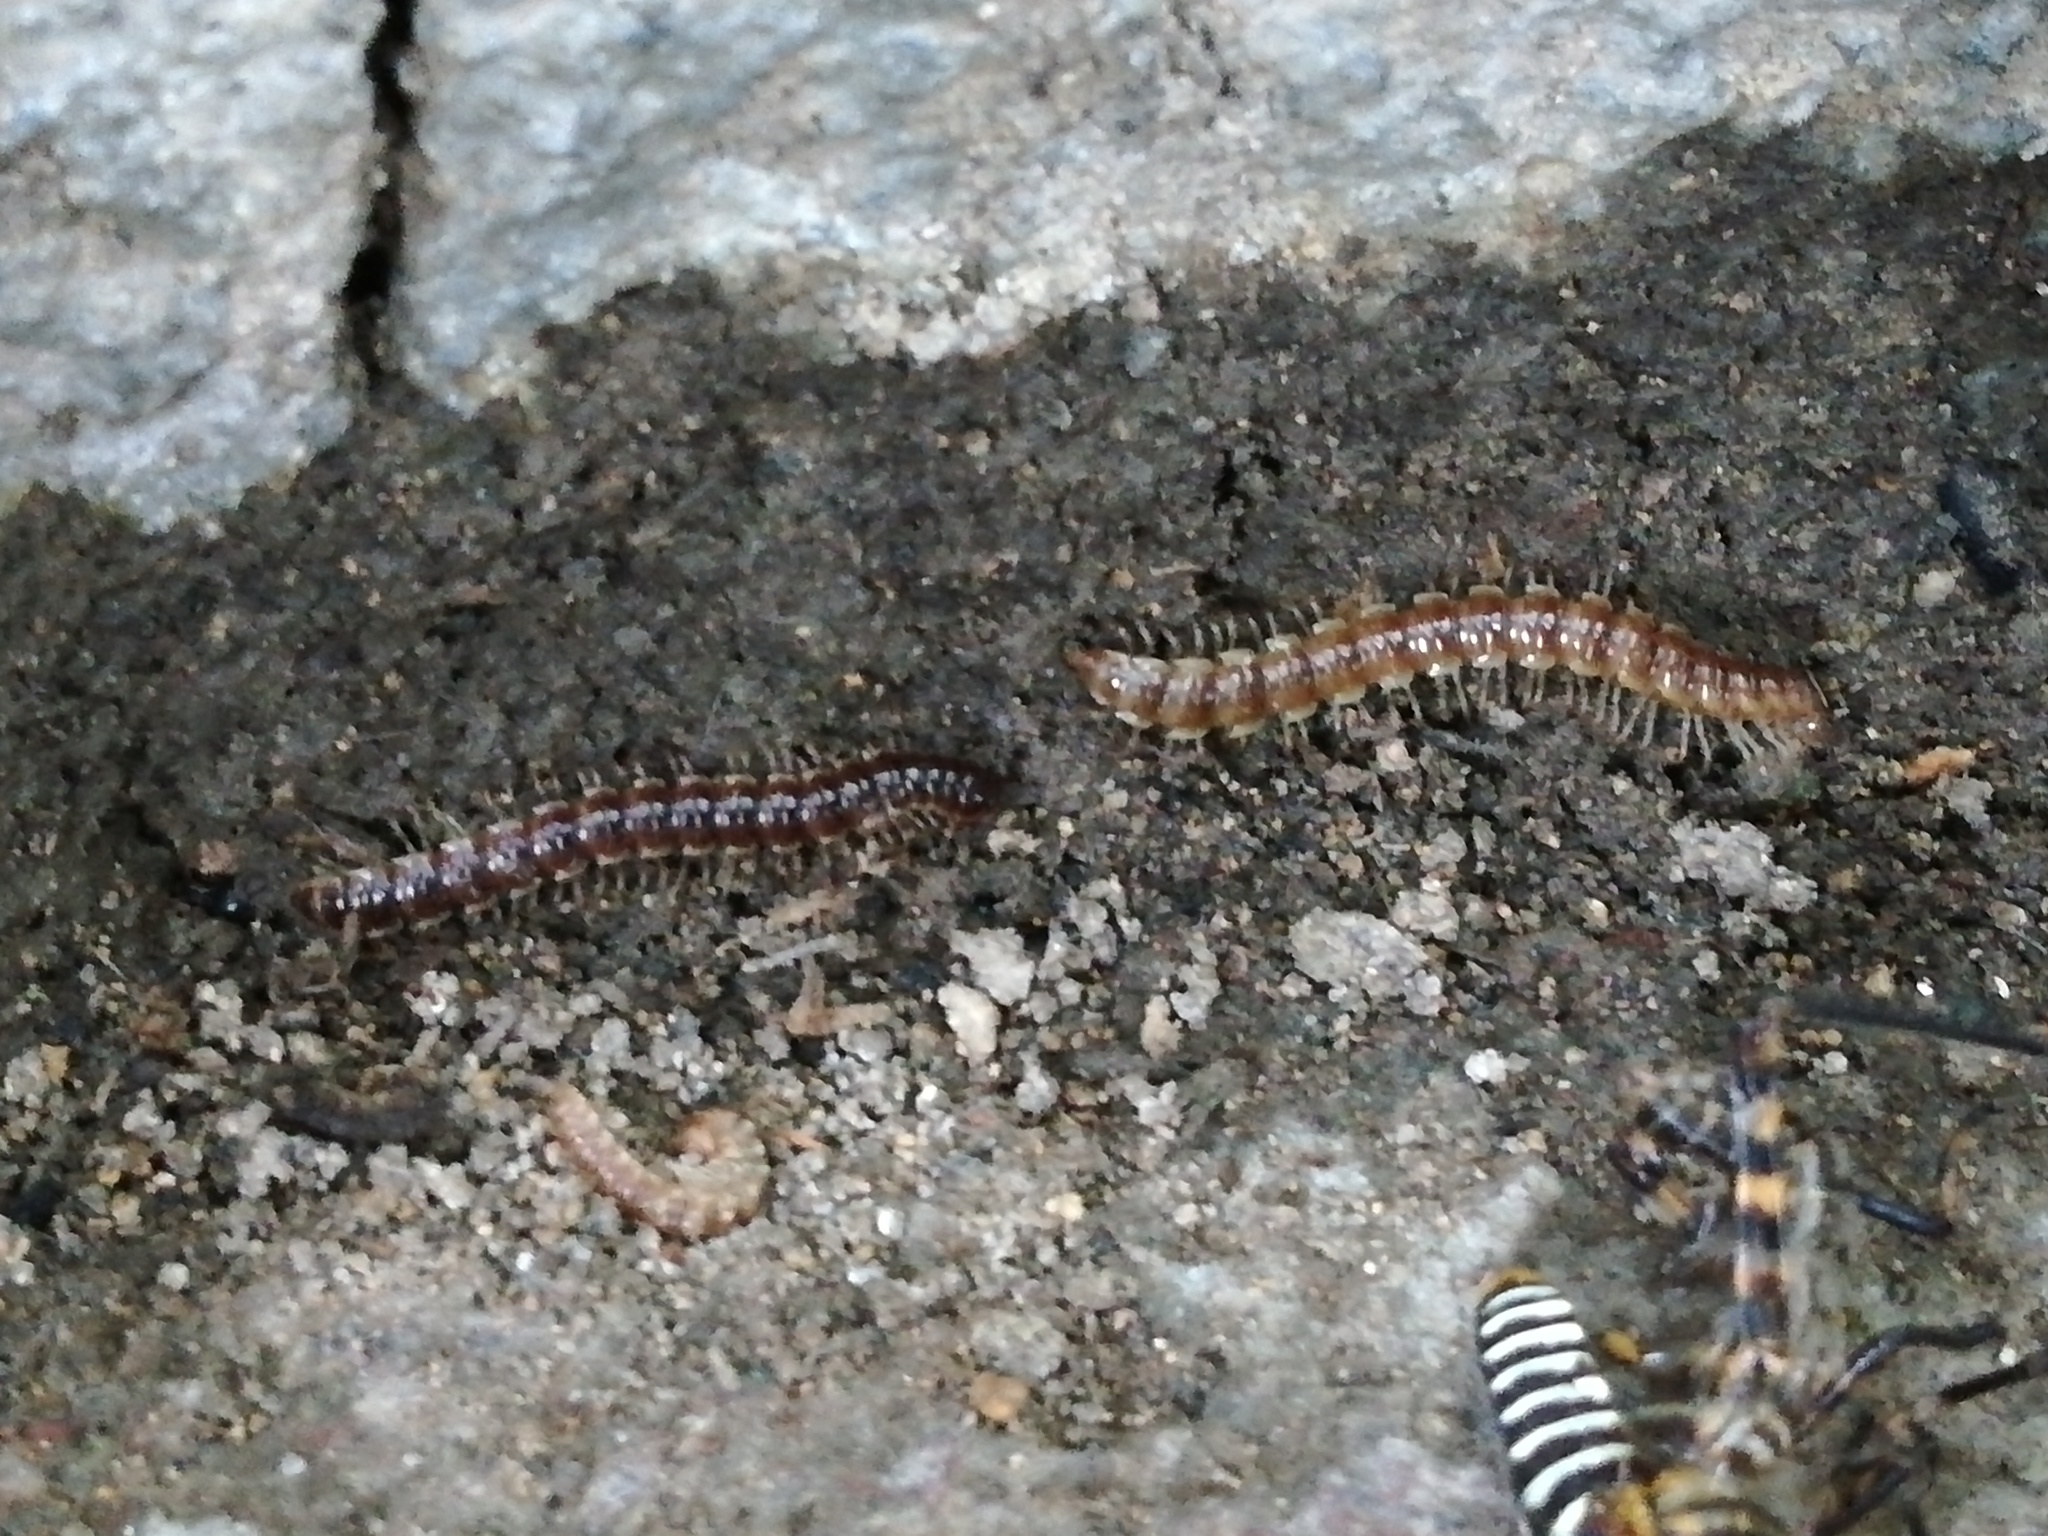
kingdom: Animalia
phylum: Arthropoda
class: Diplopoda
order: Polydesmida
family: Paradoxosomatidae
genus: Oxidus
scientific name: Oxidus gracilis
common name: Greenhouse millipede
